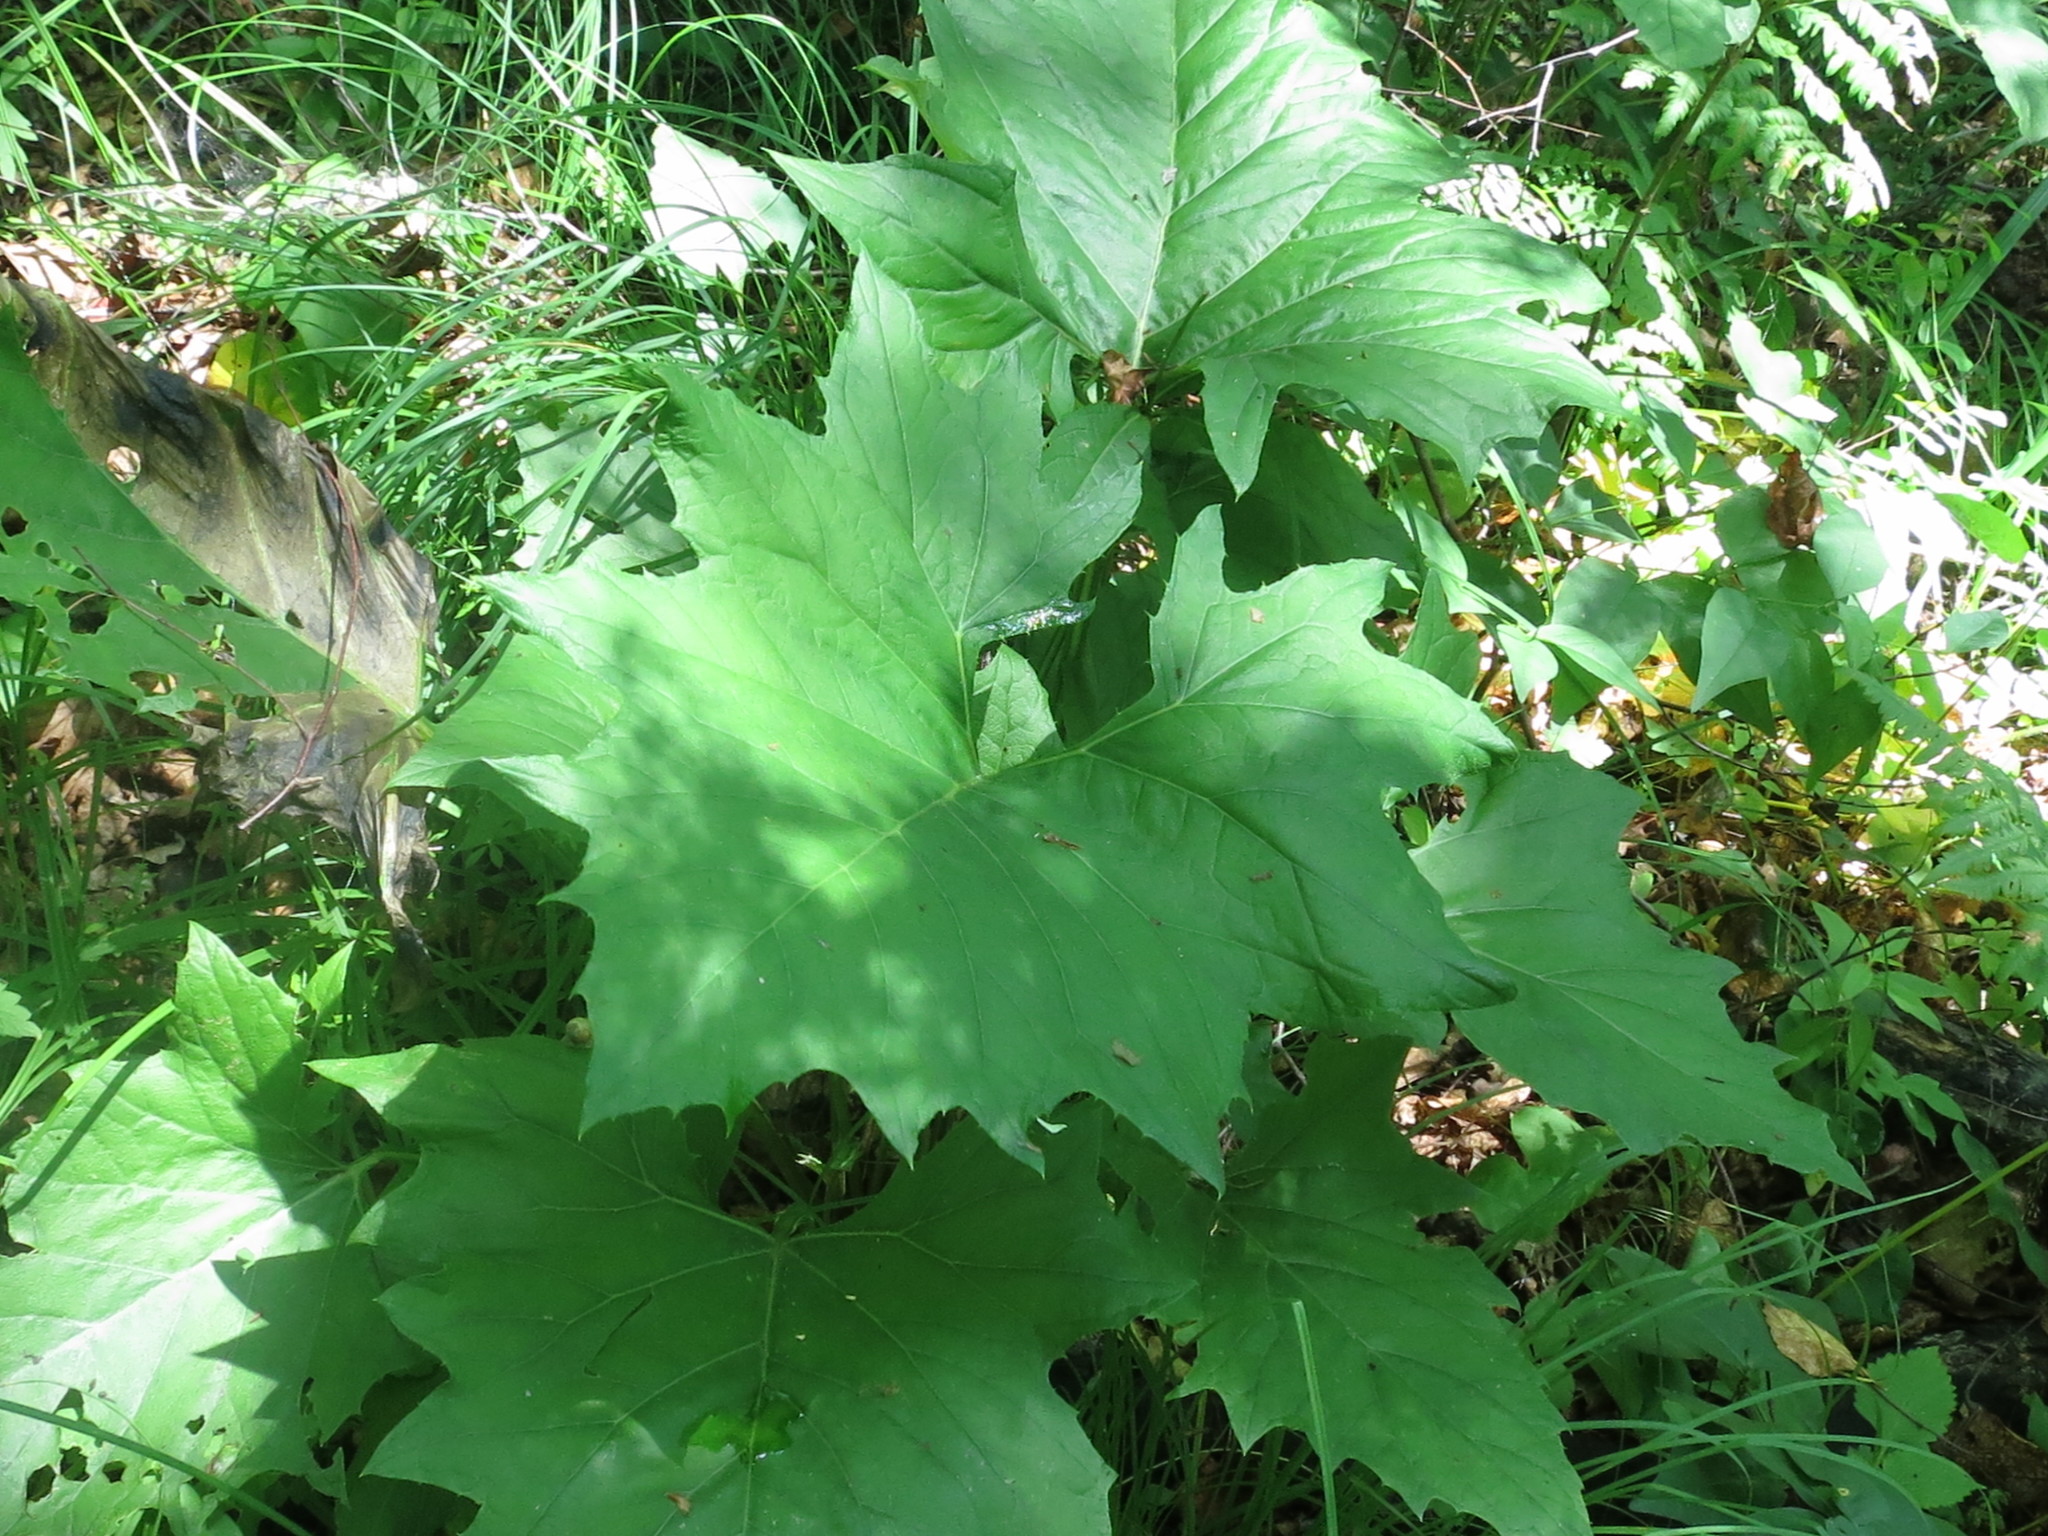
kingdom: Plantae
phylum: Tracheophyta
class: Magnoliopsida
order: Asterales
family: Asteraceae
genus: Synurus
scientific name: Synurus deltoides
